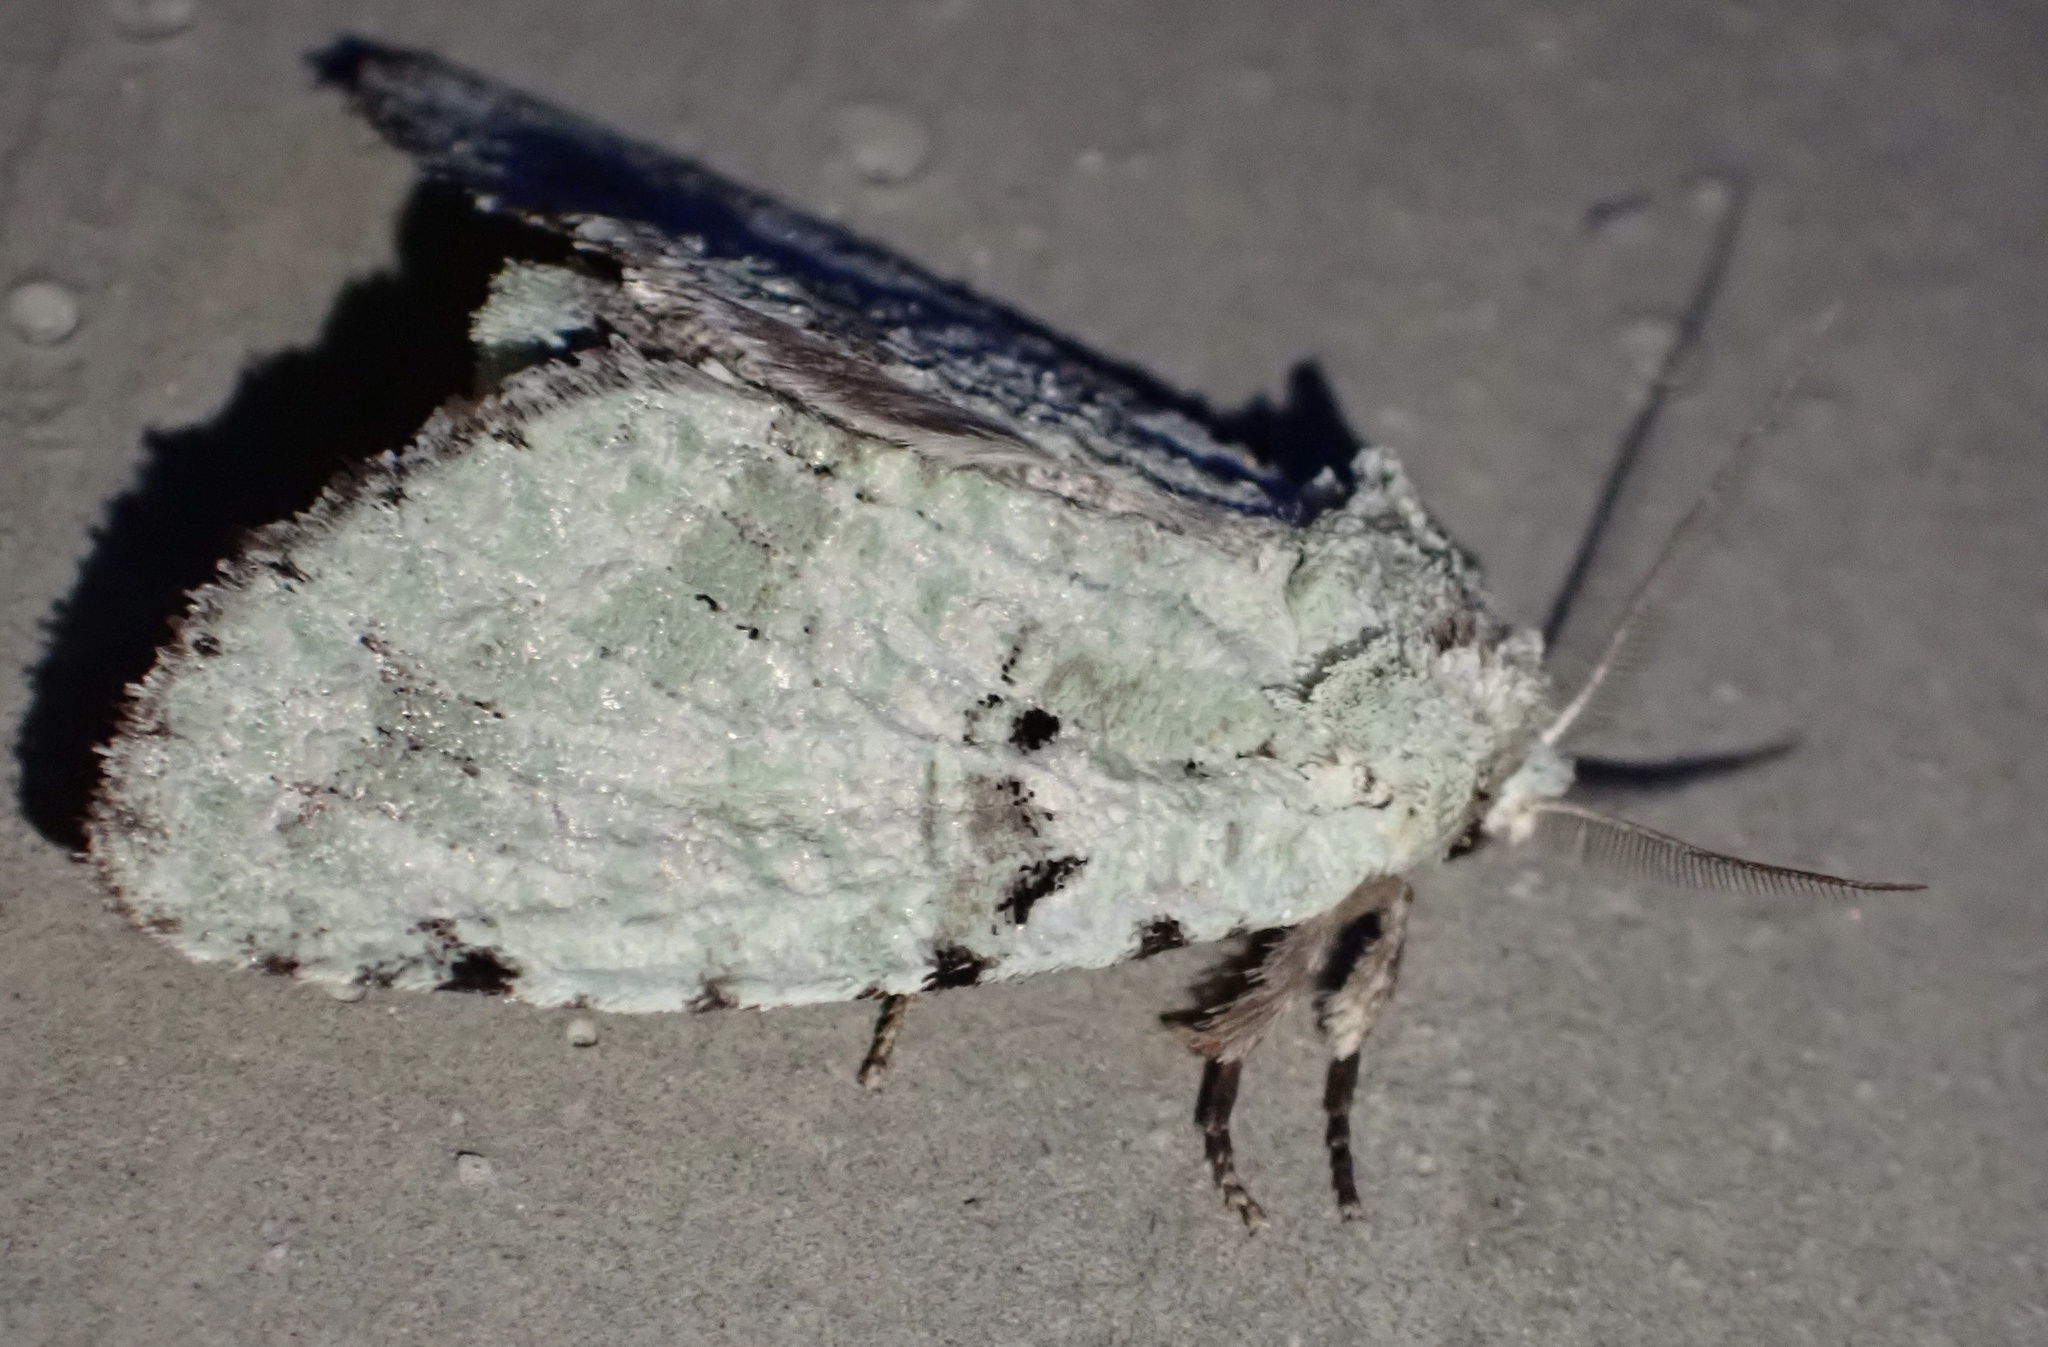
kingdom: Animalia
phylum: Arthropoda
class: Insecta
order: Lepidoptera
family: Notodontidae
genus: Kakostauropus
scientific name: Kakostauropus glaucoviridis
